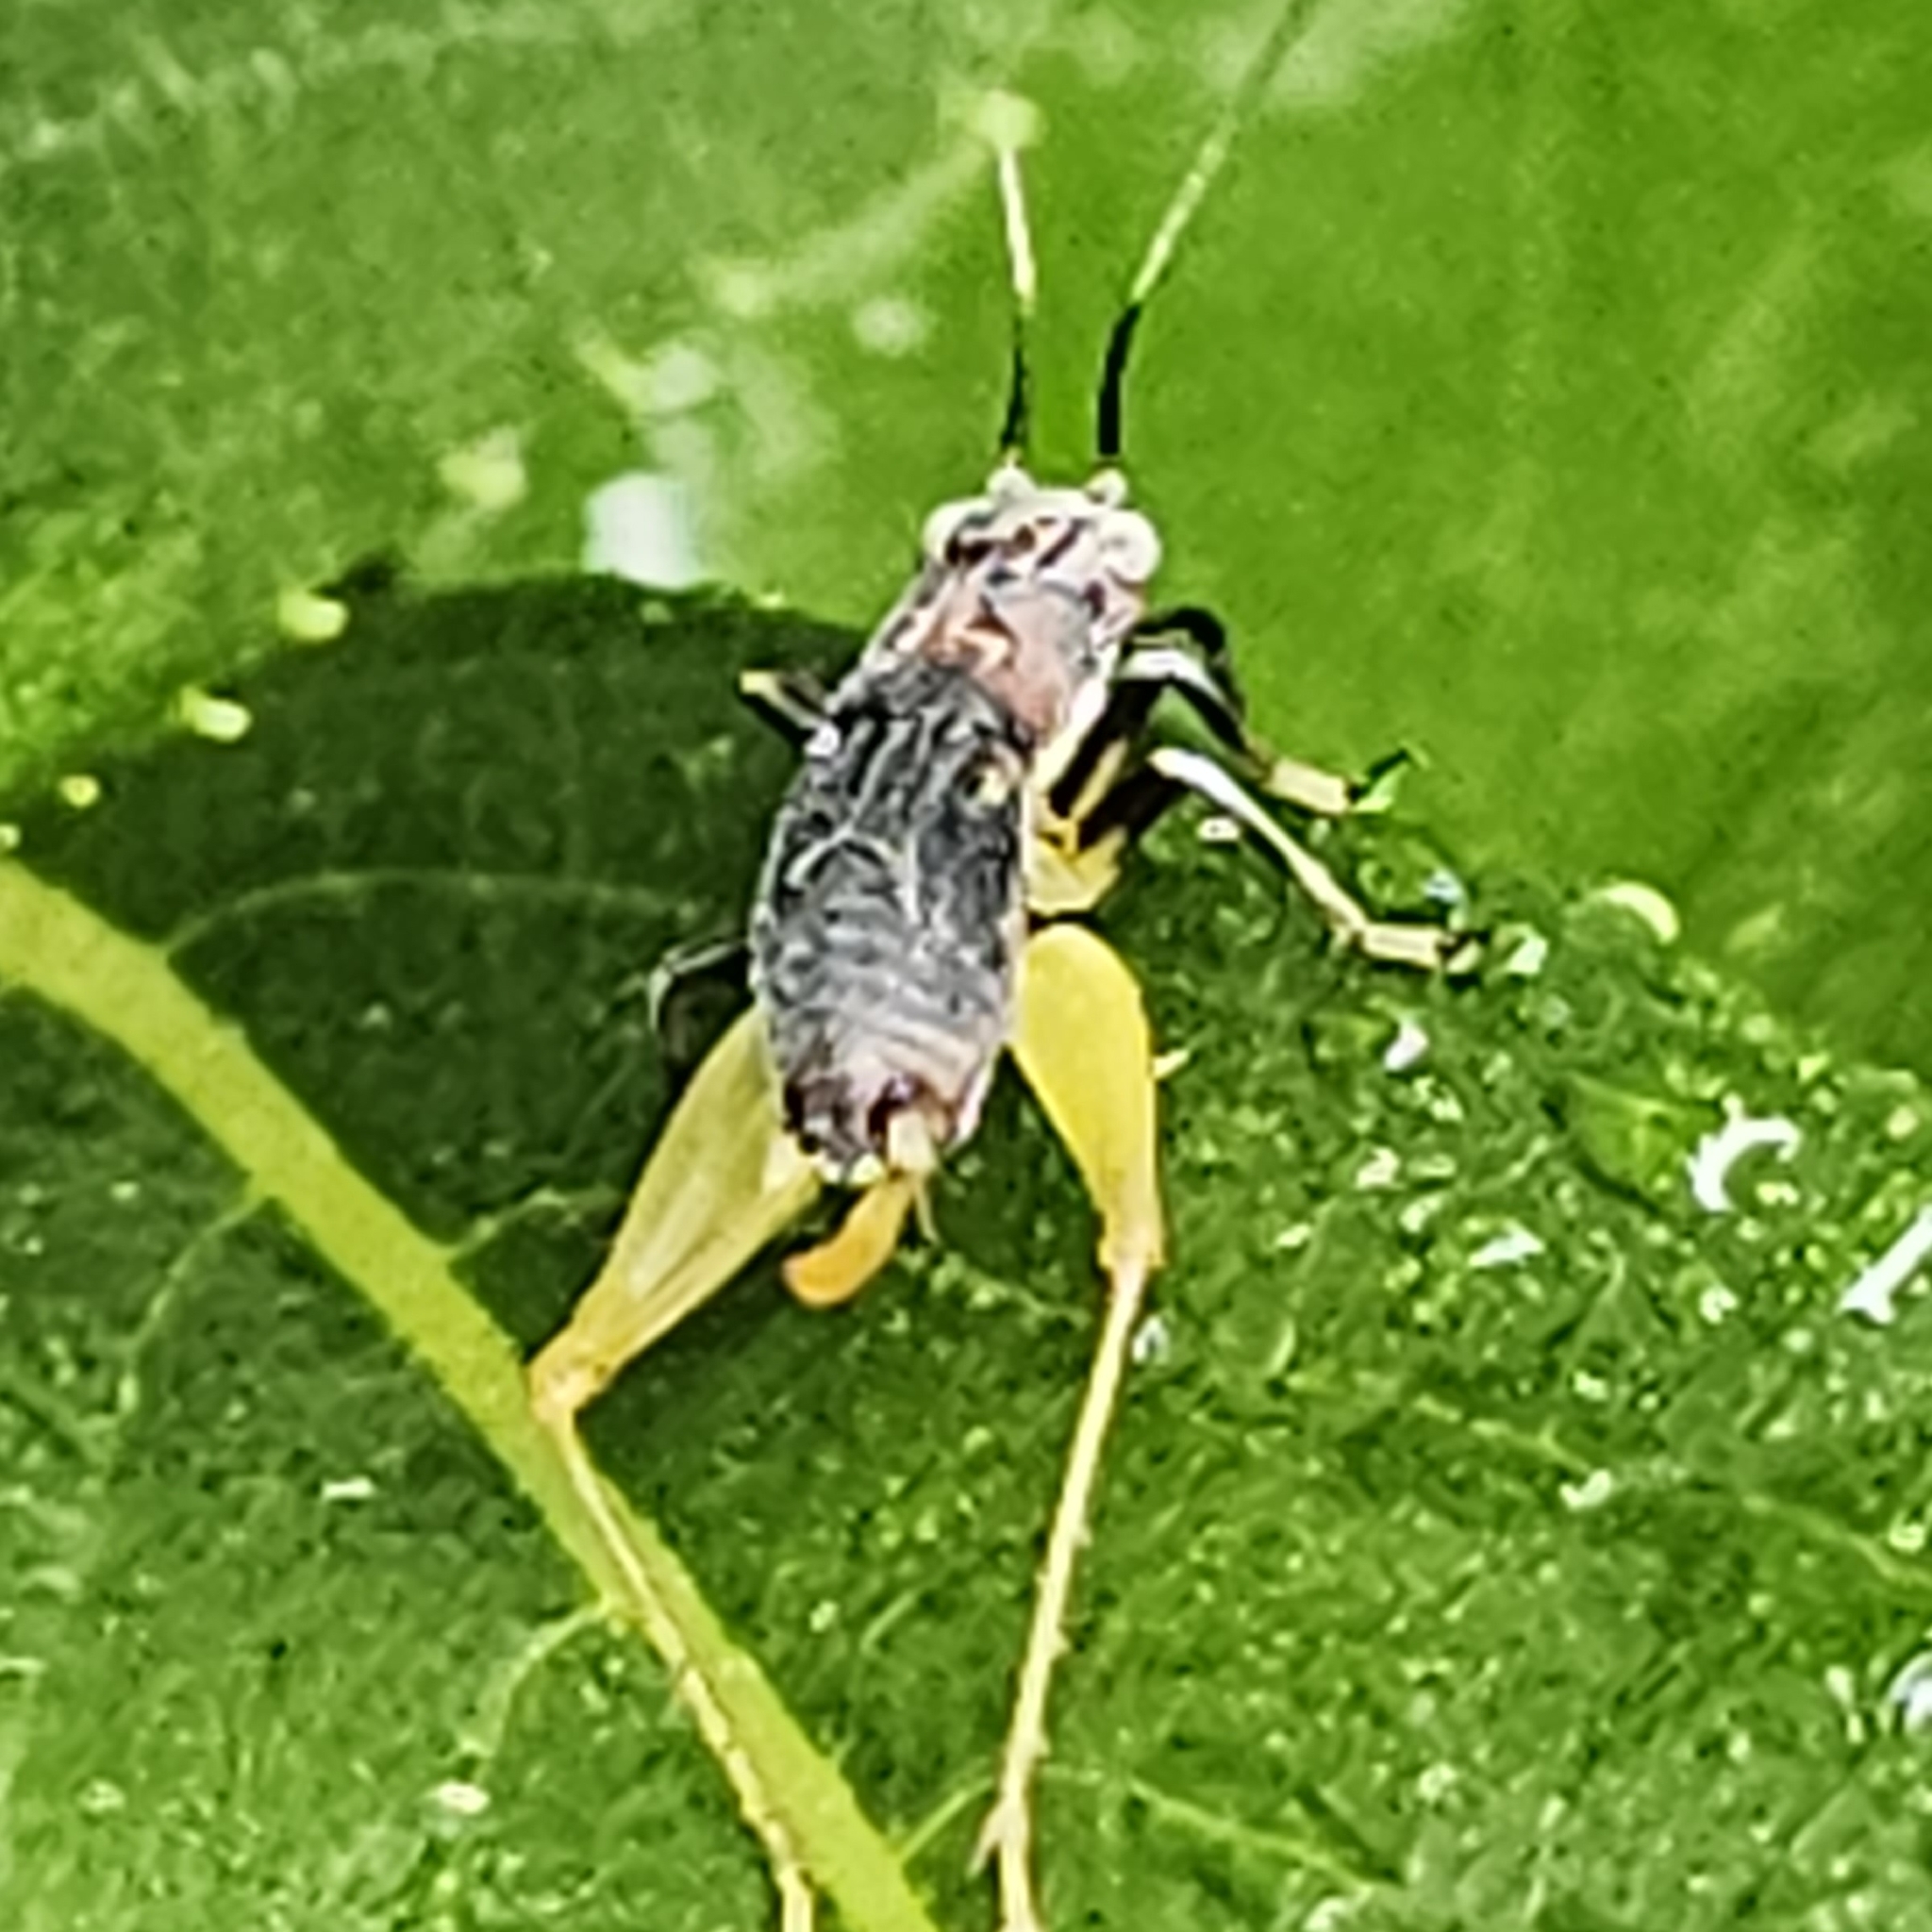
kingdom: Animalia
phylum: Arthropoda
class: Insecta
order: Orthoptera
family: Trigonidiidae
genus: Phyllopalpus
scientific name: Phyllopalpus pulchellus
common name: Handsome trig
